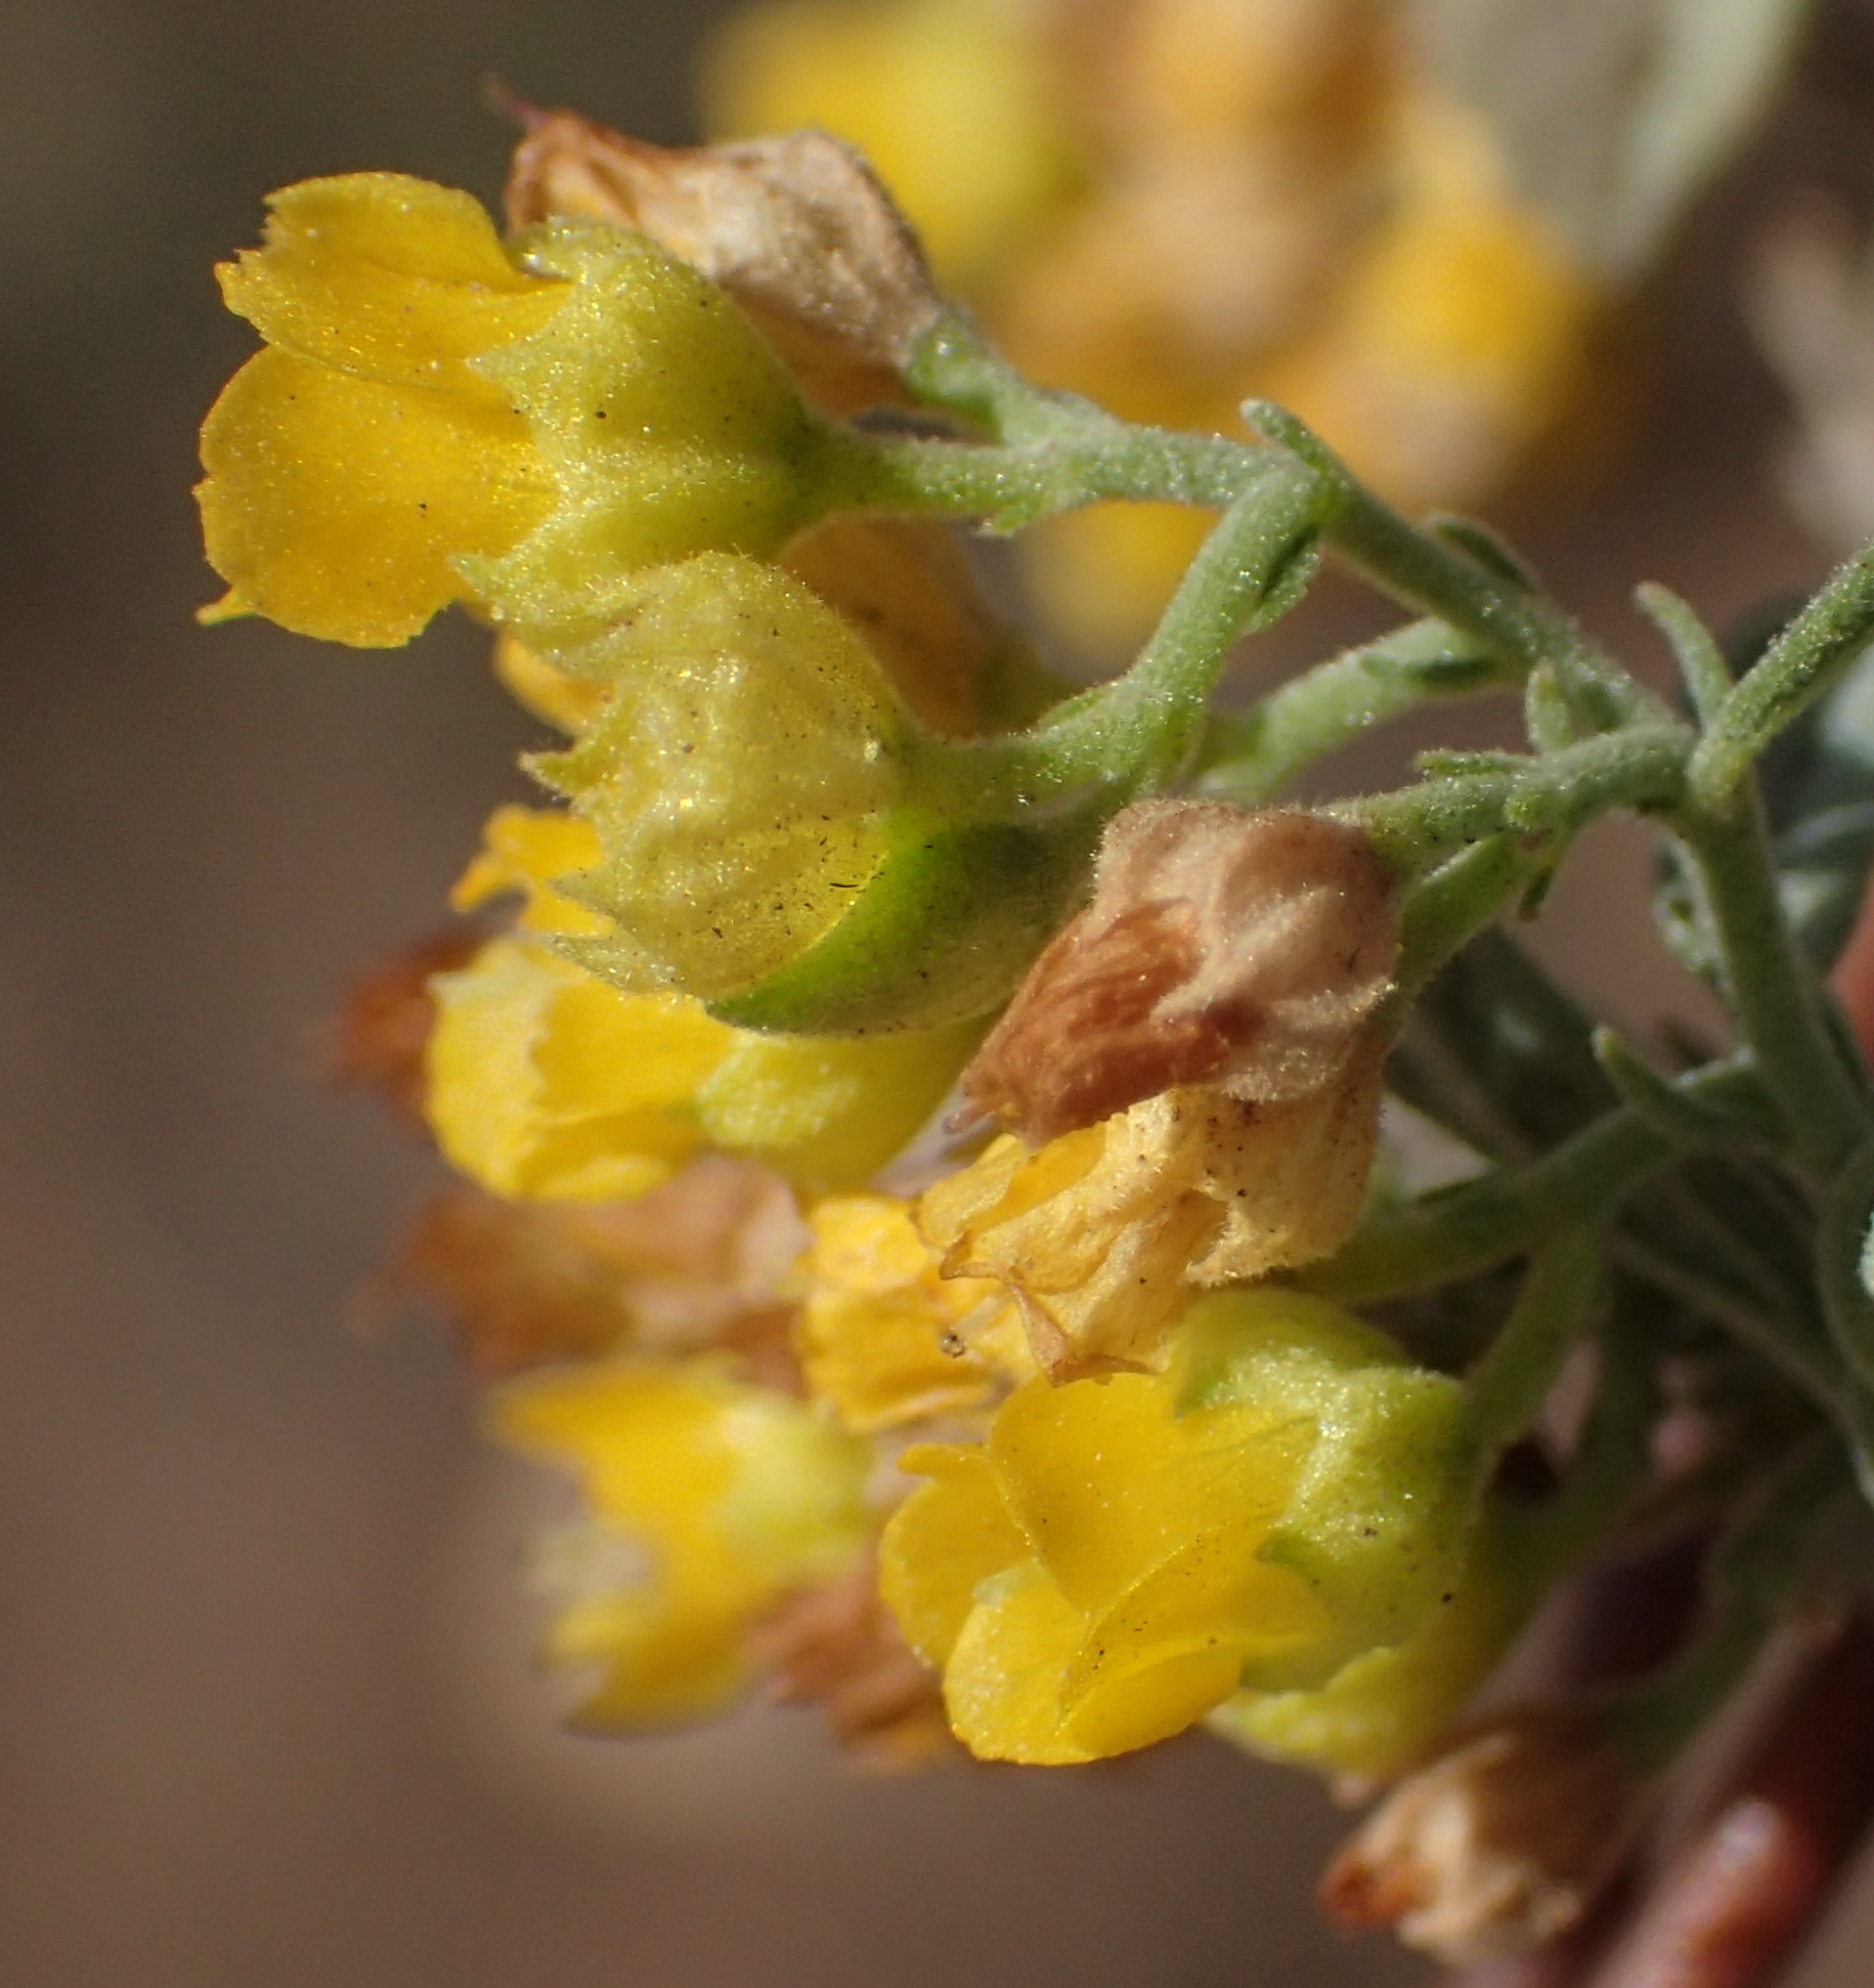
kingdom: Plantae
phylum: Tracheophyta
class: Magnoliopsida
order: Malvales
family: Malvaceae
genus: Hermannia
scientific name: Hermannia holosericea
